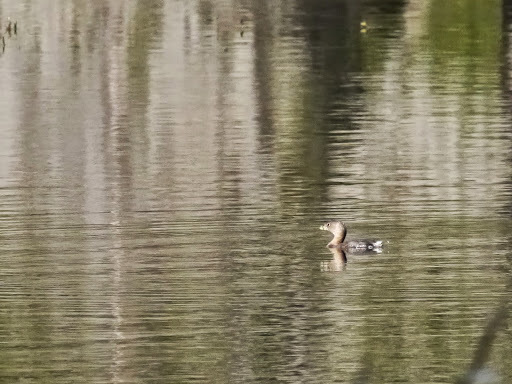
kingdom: Animalia
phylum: Chordata
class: Aves
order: Podicipediformes
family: Podicipedidae
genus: Podilymbus
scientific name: Podilymbus podiceps
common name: Pied-billed grebe
